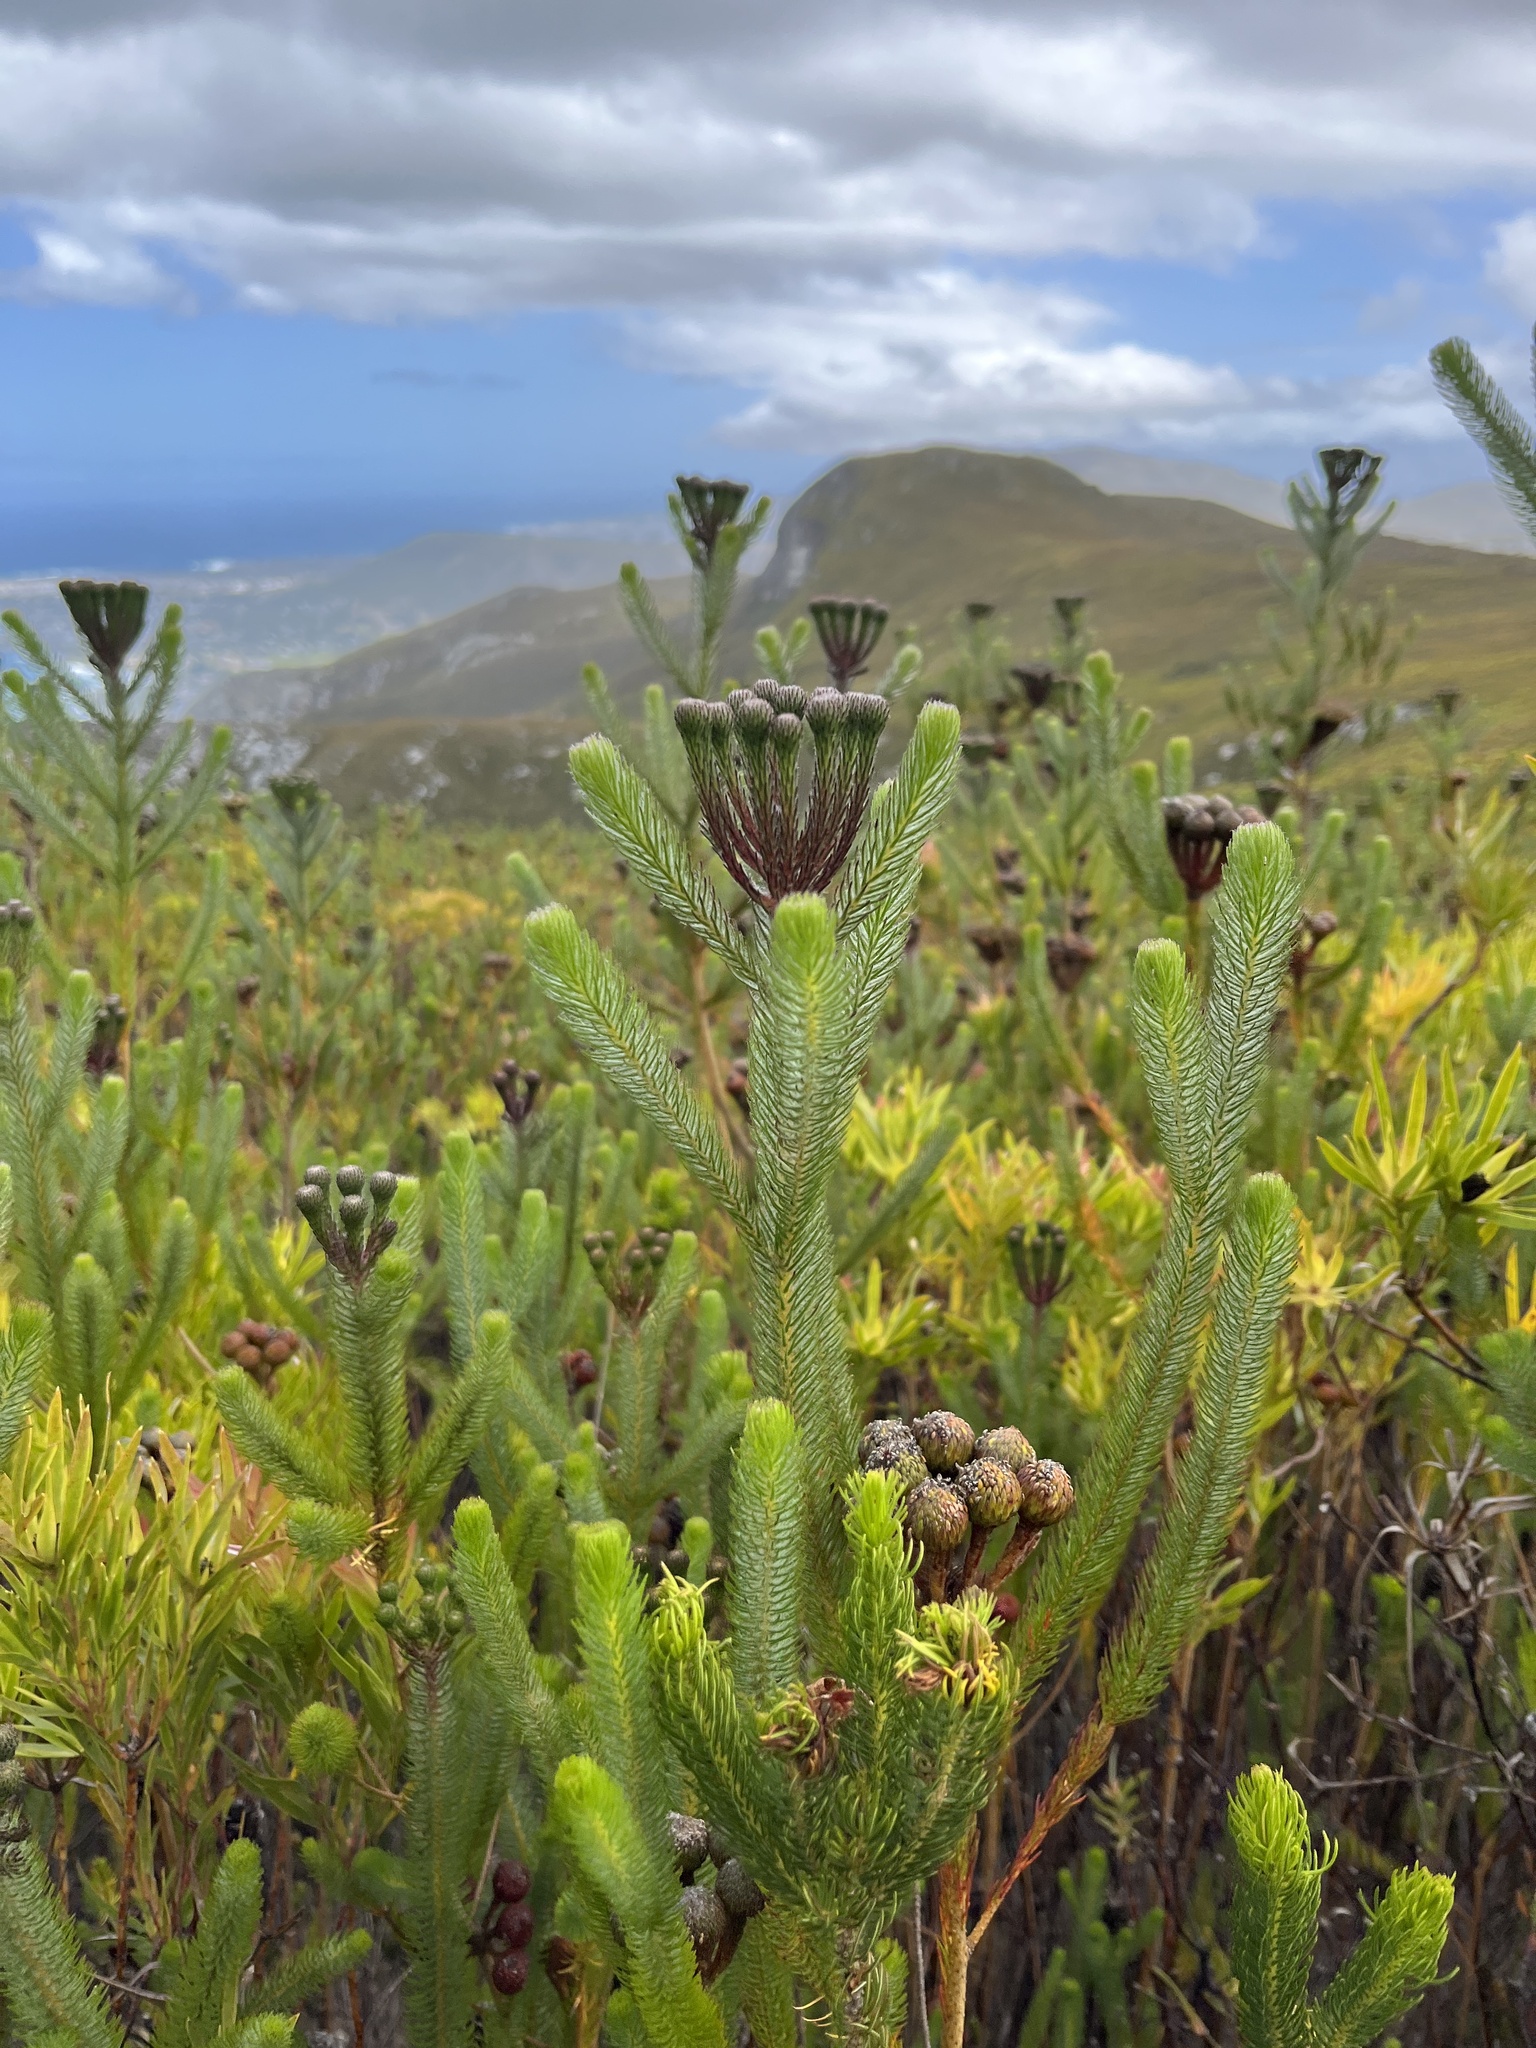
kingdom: Plantae
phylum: Tracheophyta
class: Magnoliopsida
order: Bruniales
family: Bruniaceae
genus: Berzelia
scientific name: Berzelia albiflora
